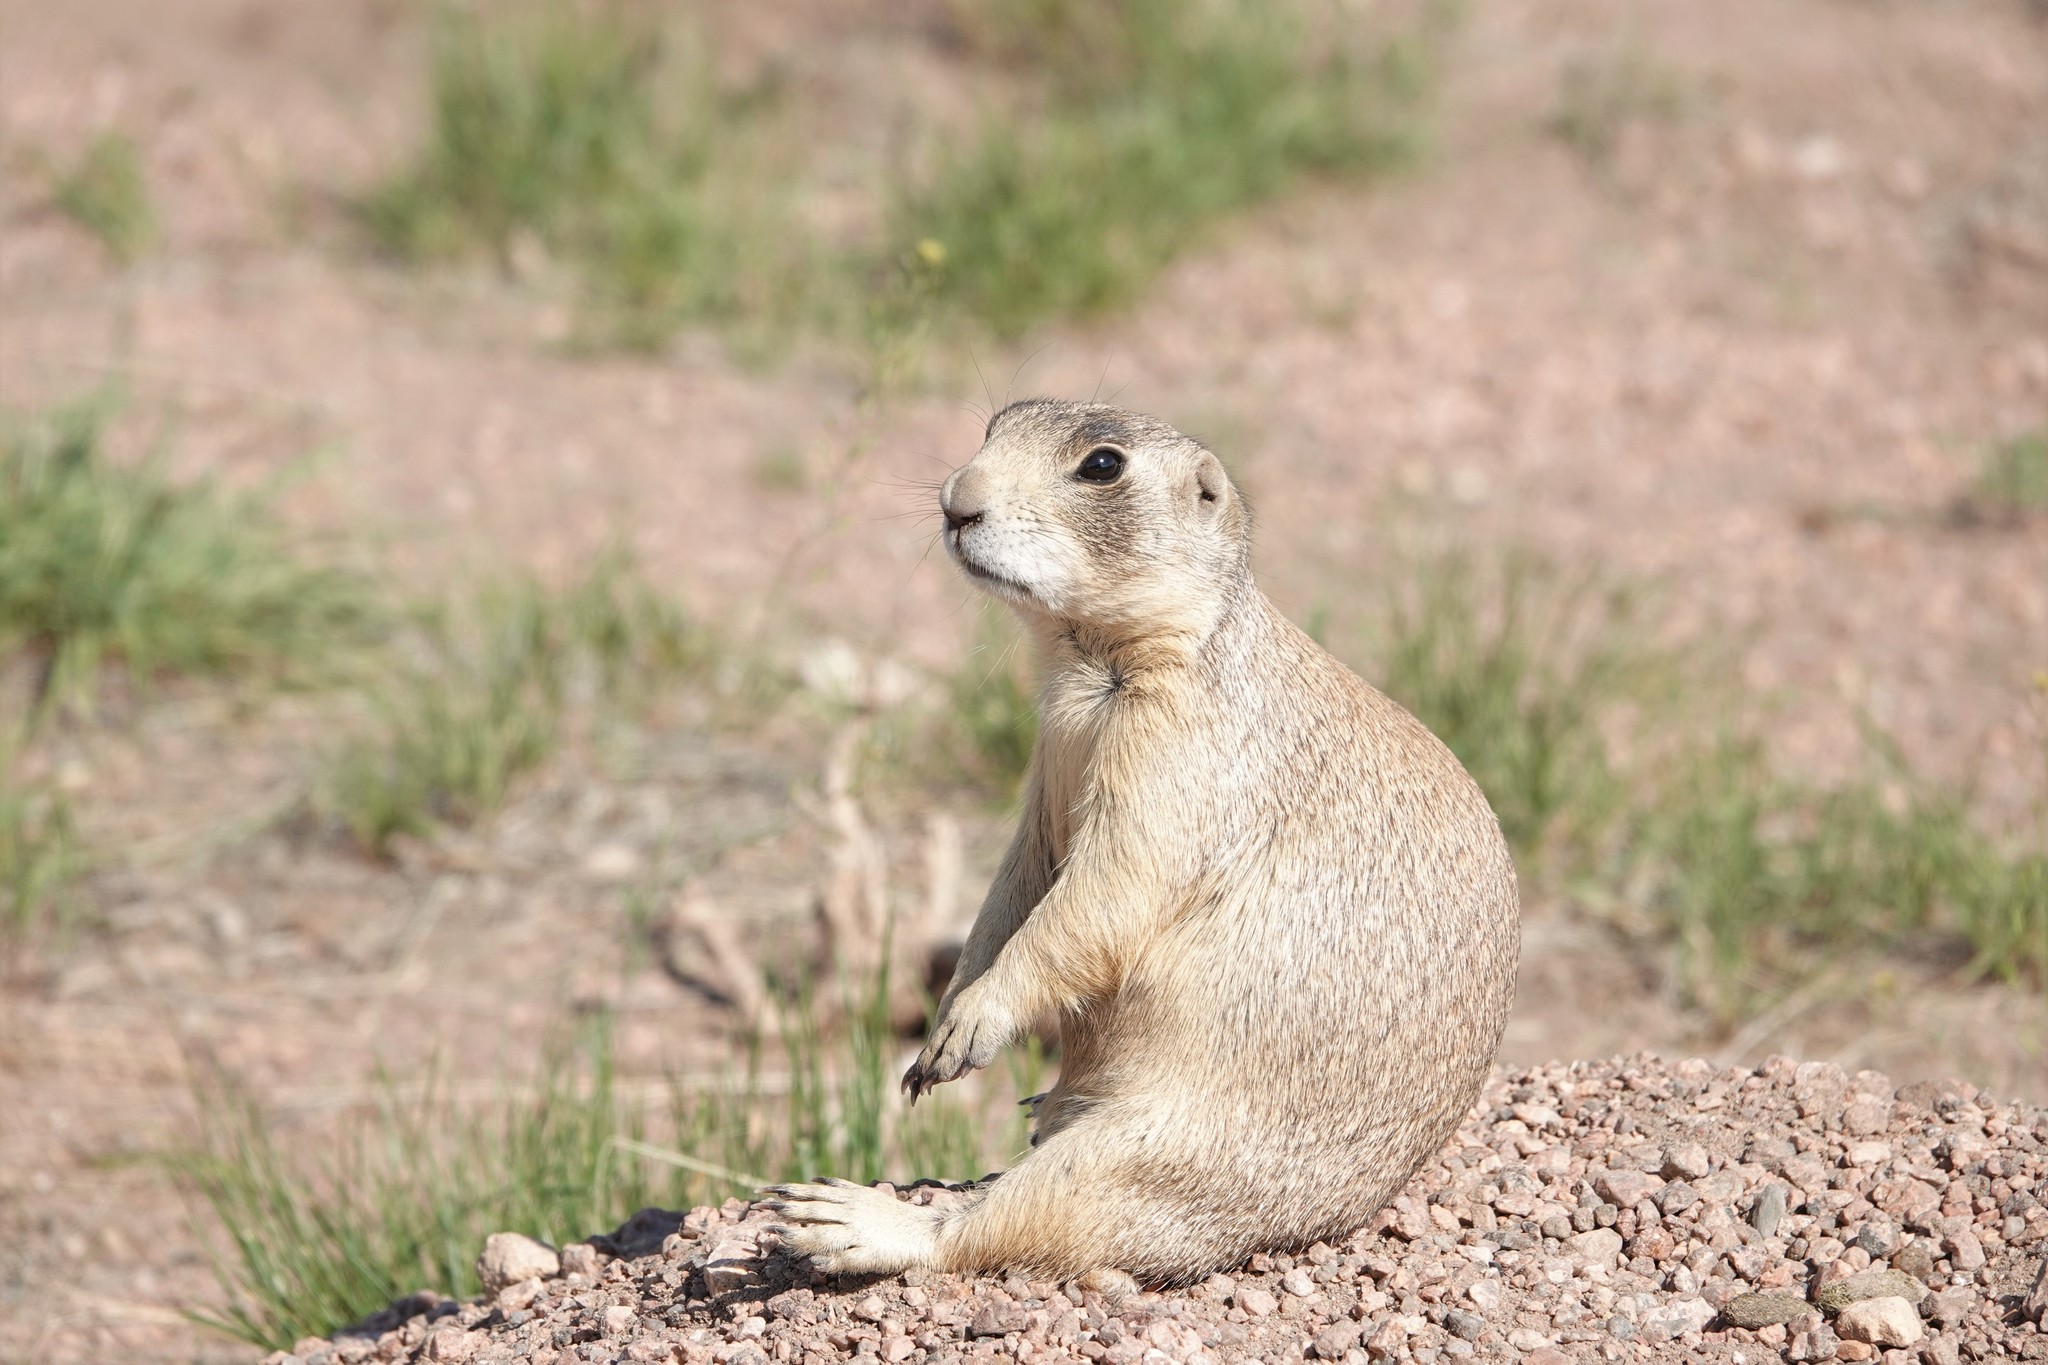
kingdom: Animalia
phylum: Chordata
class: Mammalia
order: Rodentia
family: Sciuridae
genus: Cynomys
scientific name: Cynomys leucurus
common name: White-tailed prairie dog
